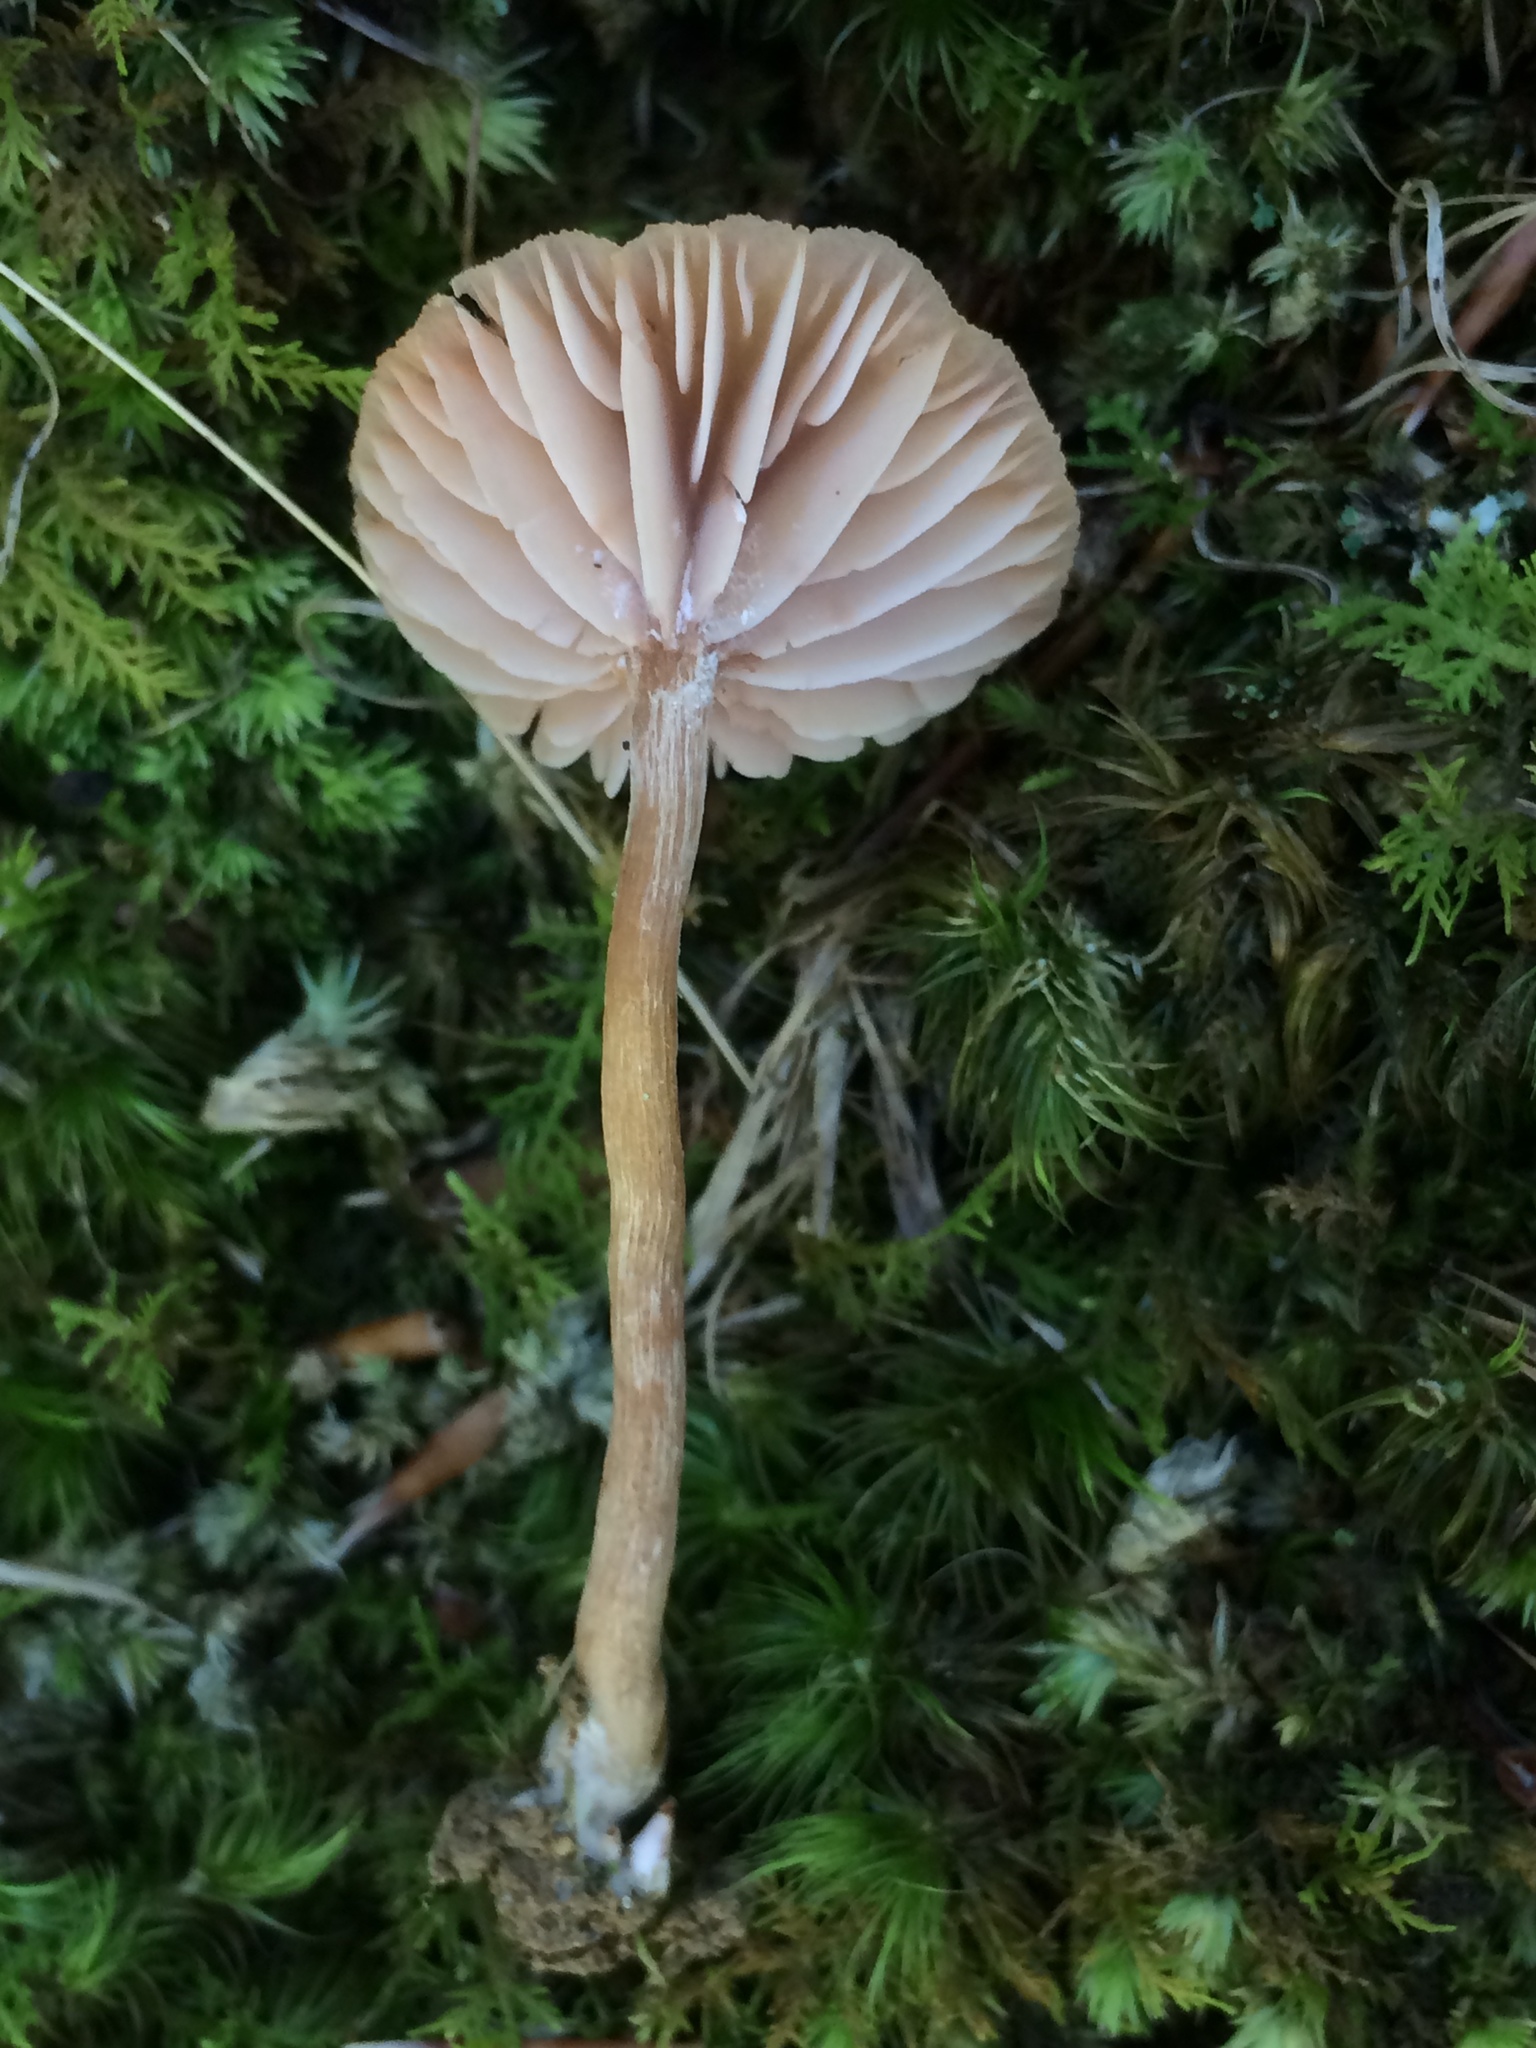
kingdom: Fungi
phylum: Basidiomycota
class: Agaricomycetes
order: Agaricales
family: Hydnangiaceae
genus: Laccaria
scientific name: Laccaria laccata
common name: Deceiver
